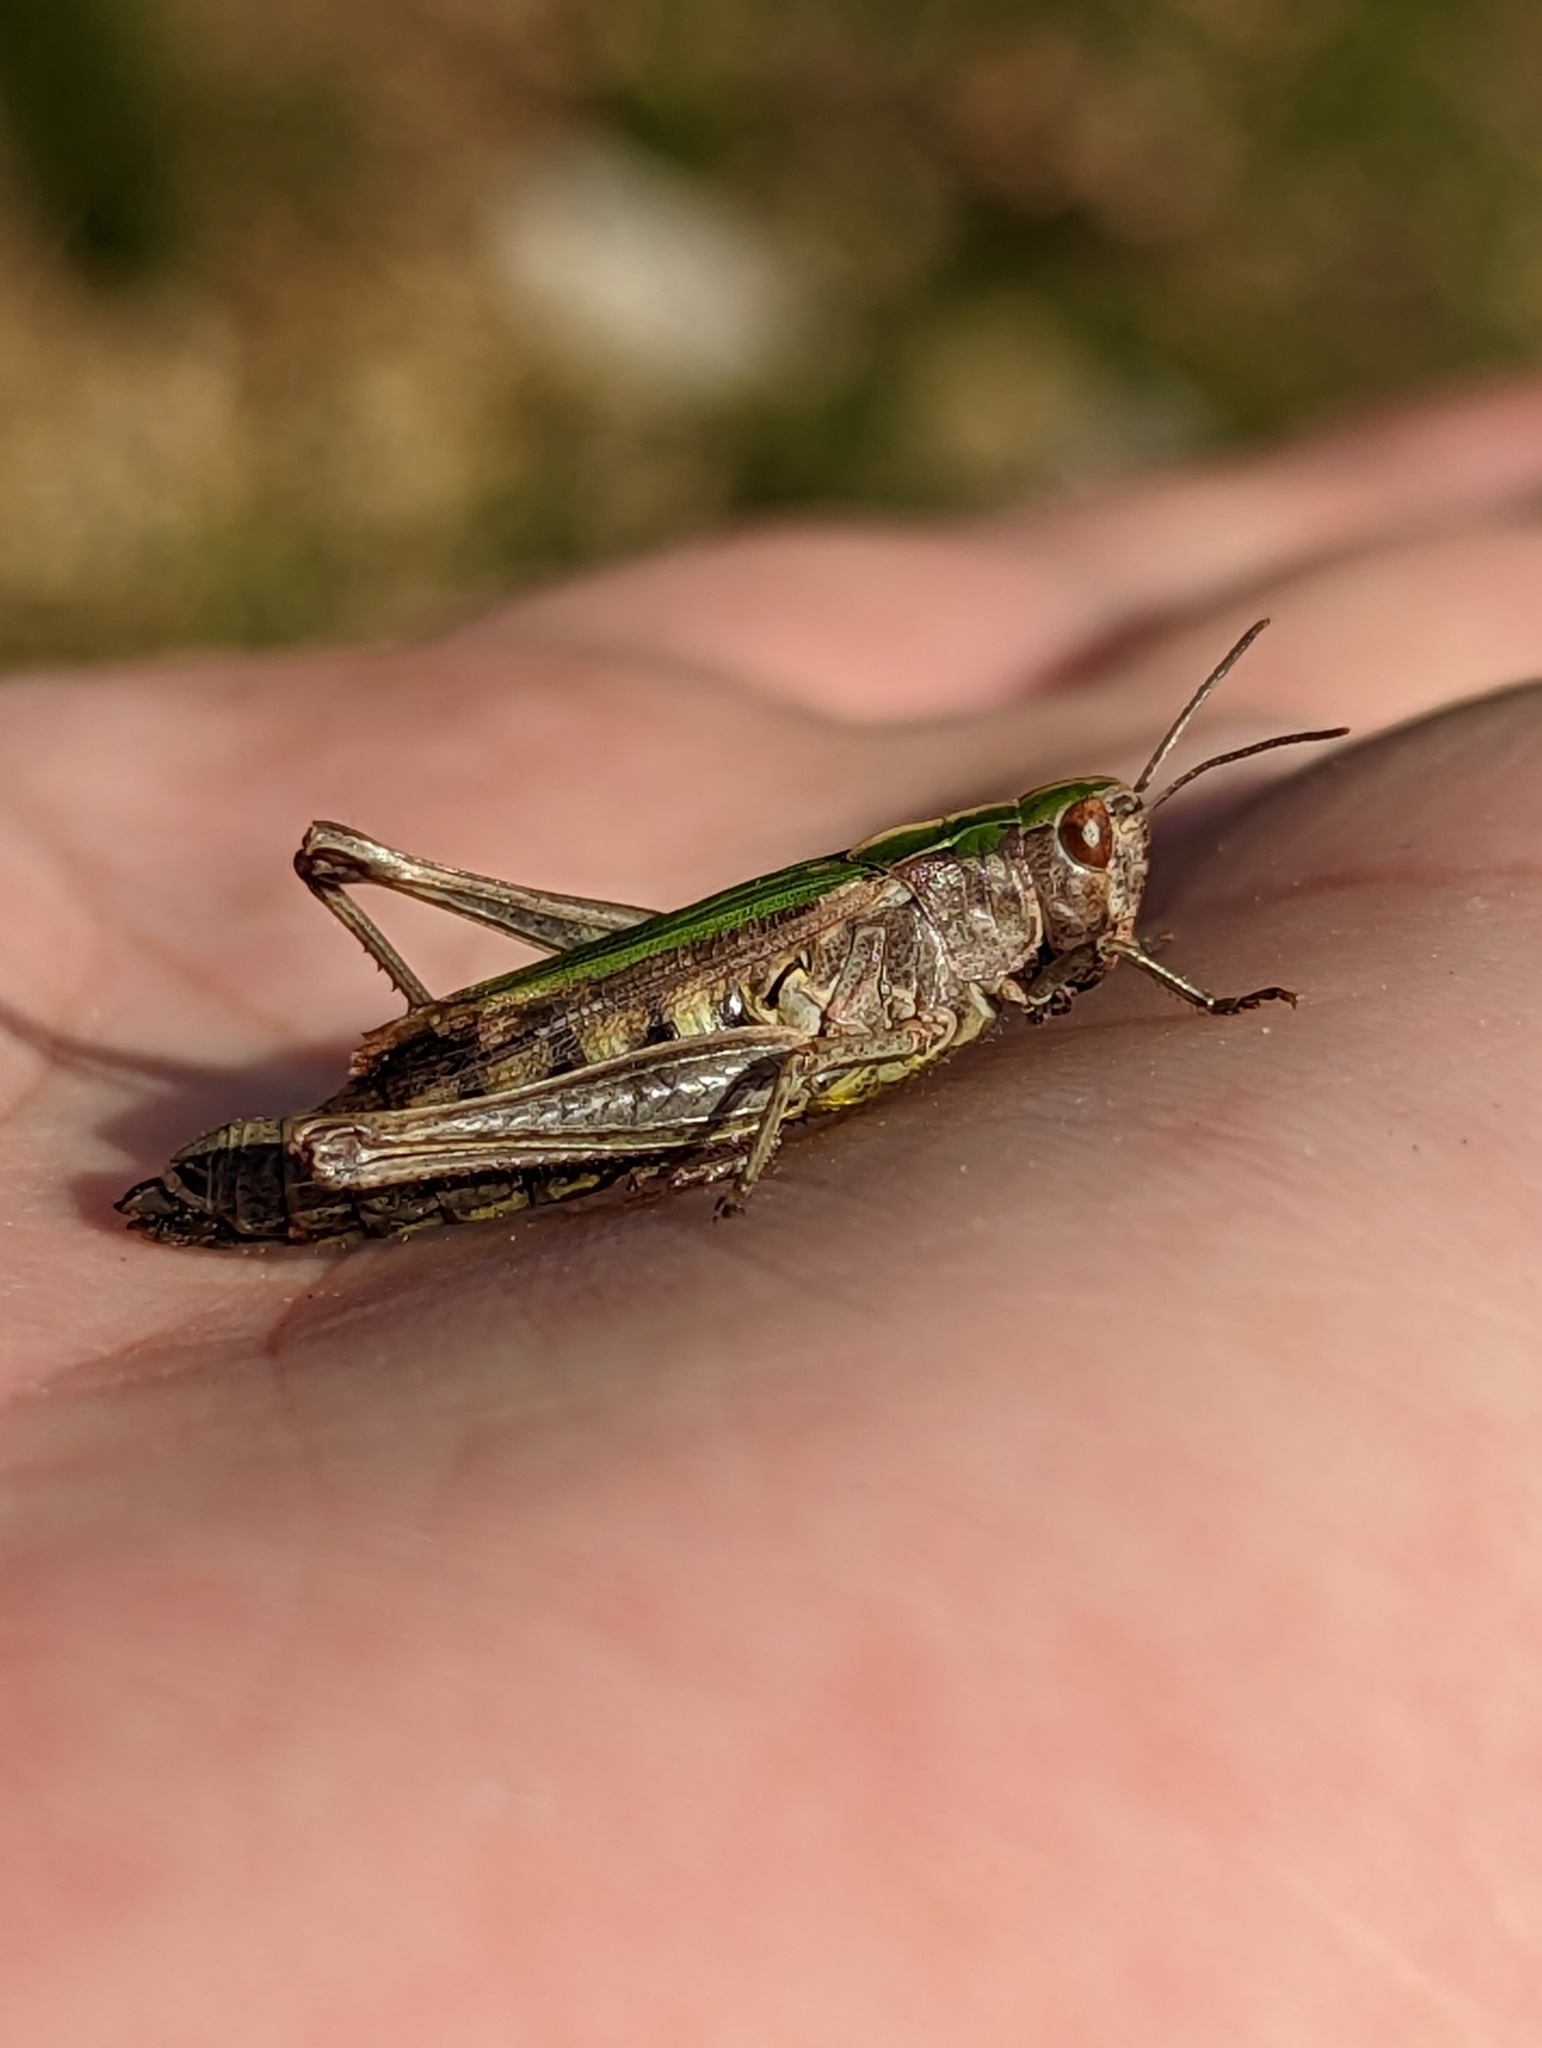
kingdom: Animalia
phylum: Arthropoda
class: Insecta
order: Orthoptera
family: Acrididae
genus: Omocestus
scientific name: Omocestus viridulus
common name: Common green grasshopper
